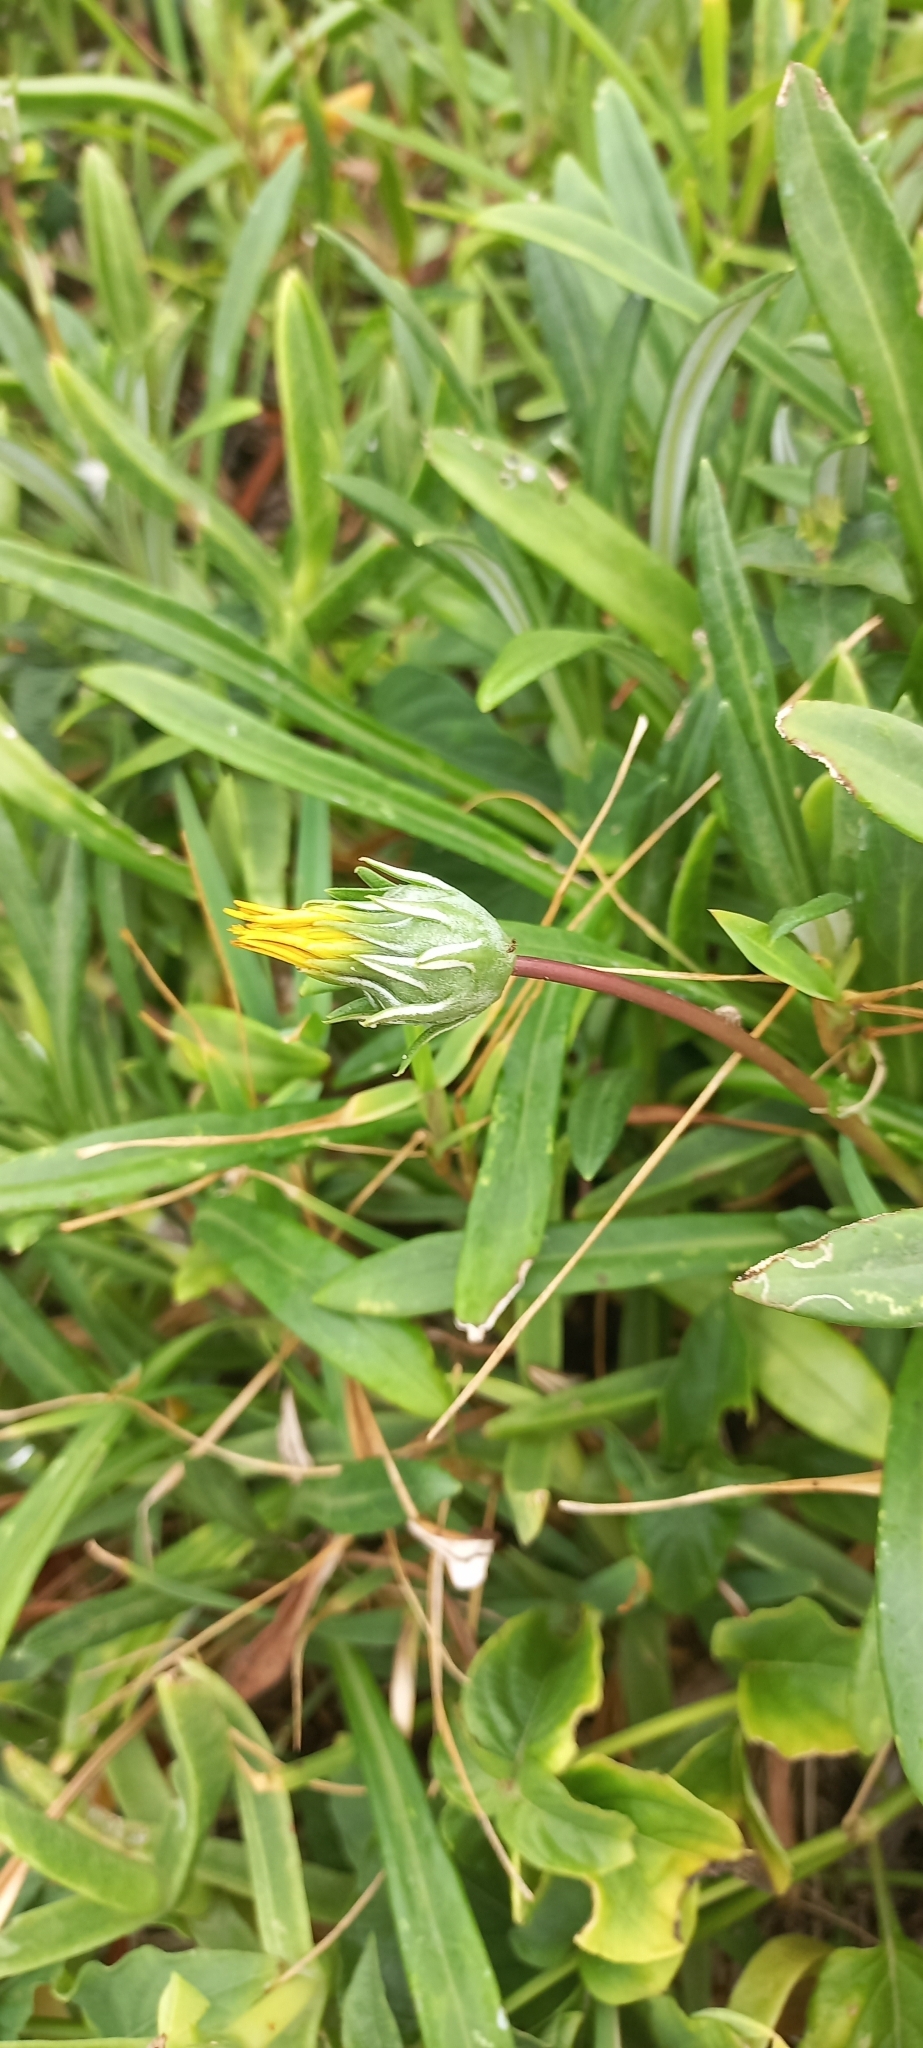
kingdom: Plantae
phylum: Tracheophyta
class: Magnoliopsida
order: Asterales
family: Asteraceae
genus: Gazania
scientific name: Gazania rigens
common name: Treasureflower
